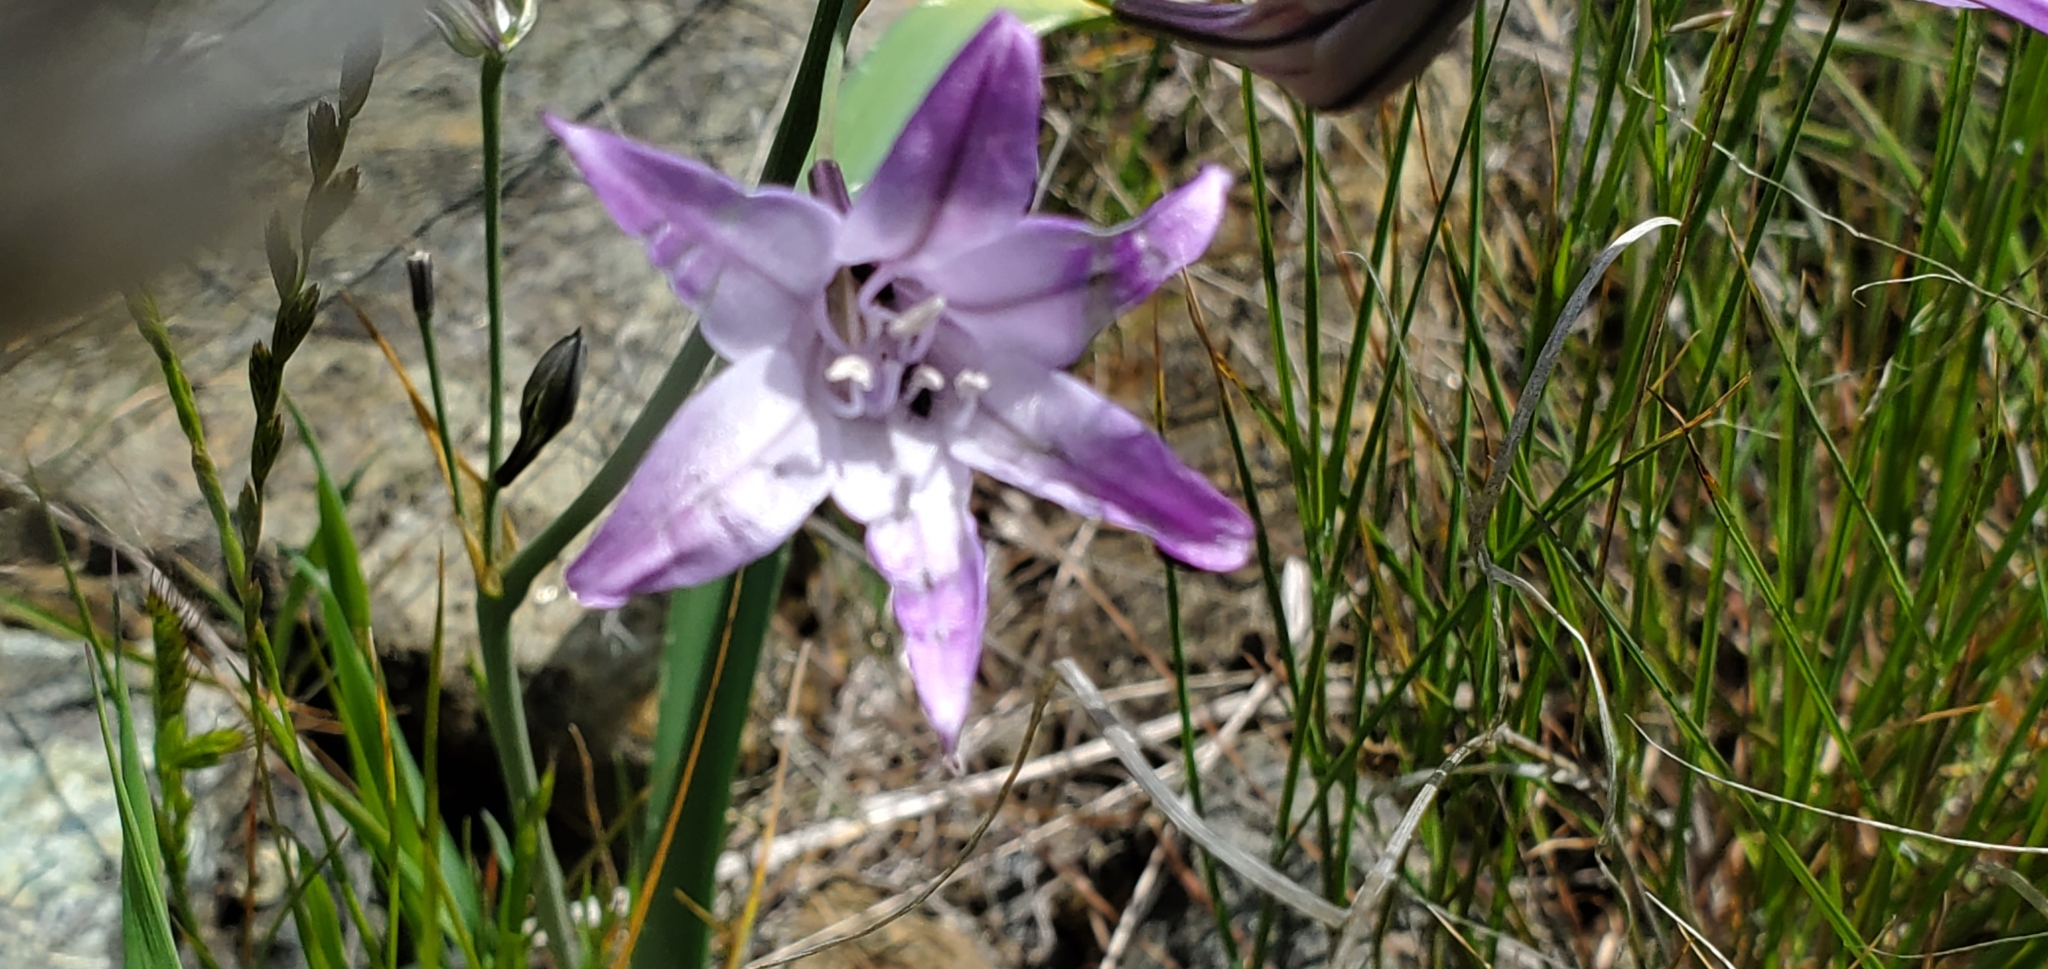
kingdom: Plantae
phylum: Tracheophyta
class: Liliopsida
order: Asparagales
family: Asparagaceae
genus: Triteleia
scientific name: Triteleia laxa
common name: Triplet-lily
